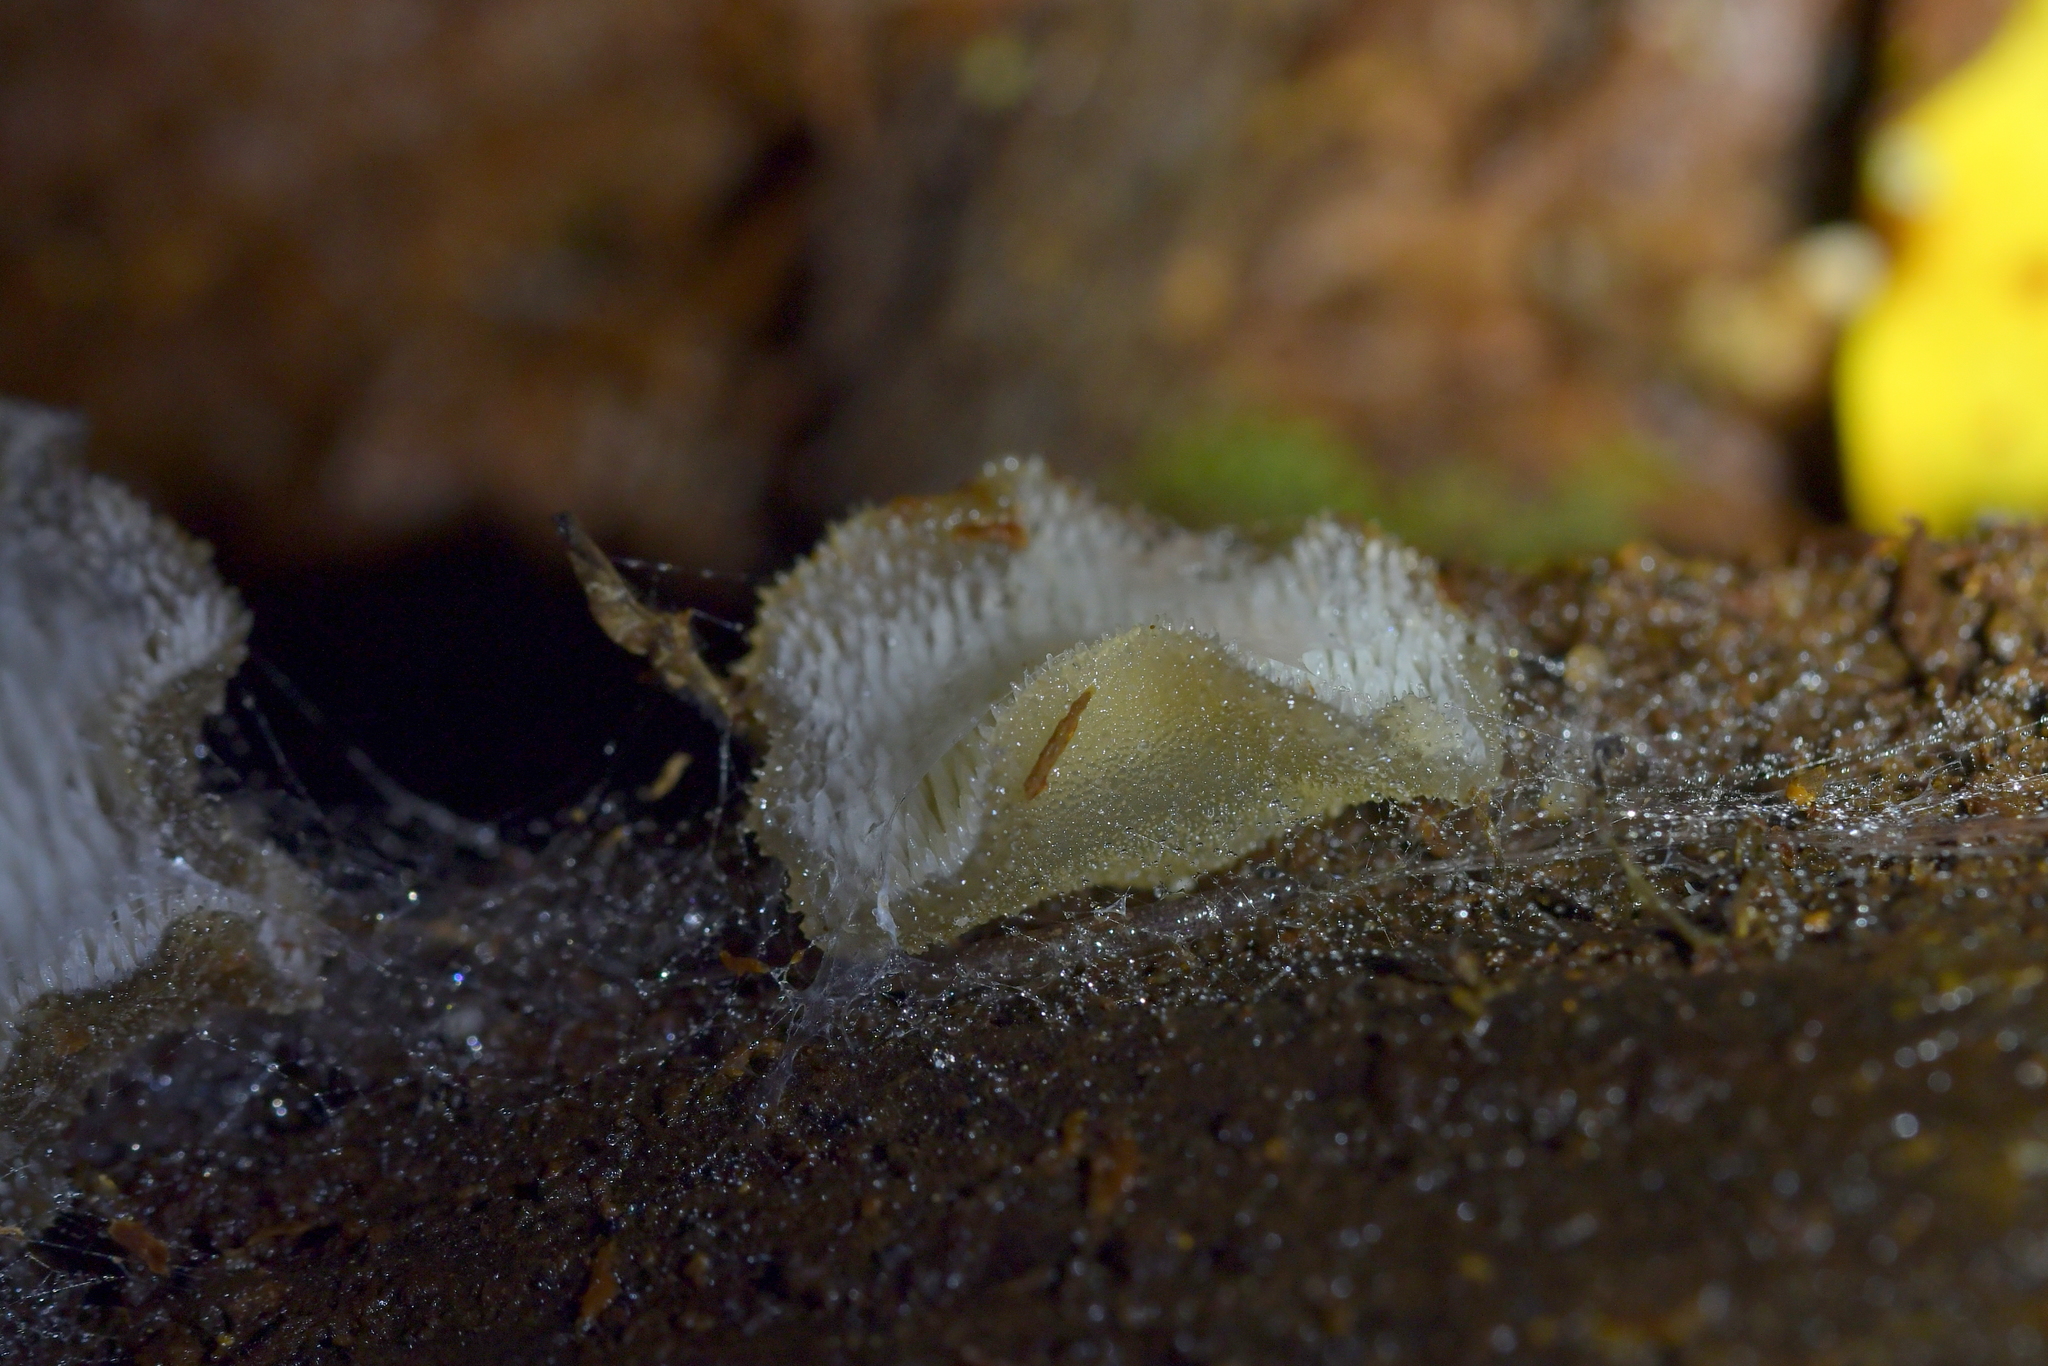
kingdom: Fungi
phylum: Basidiomycota
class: Agaricomycetes
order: Auriculariales
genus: Pseudohydnum
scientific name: Pseudohydnum orbiculare
